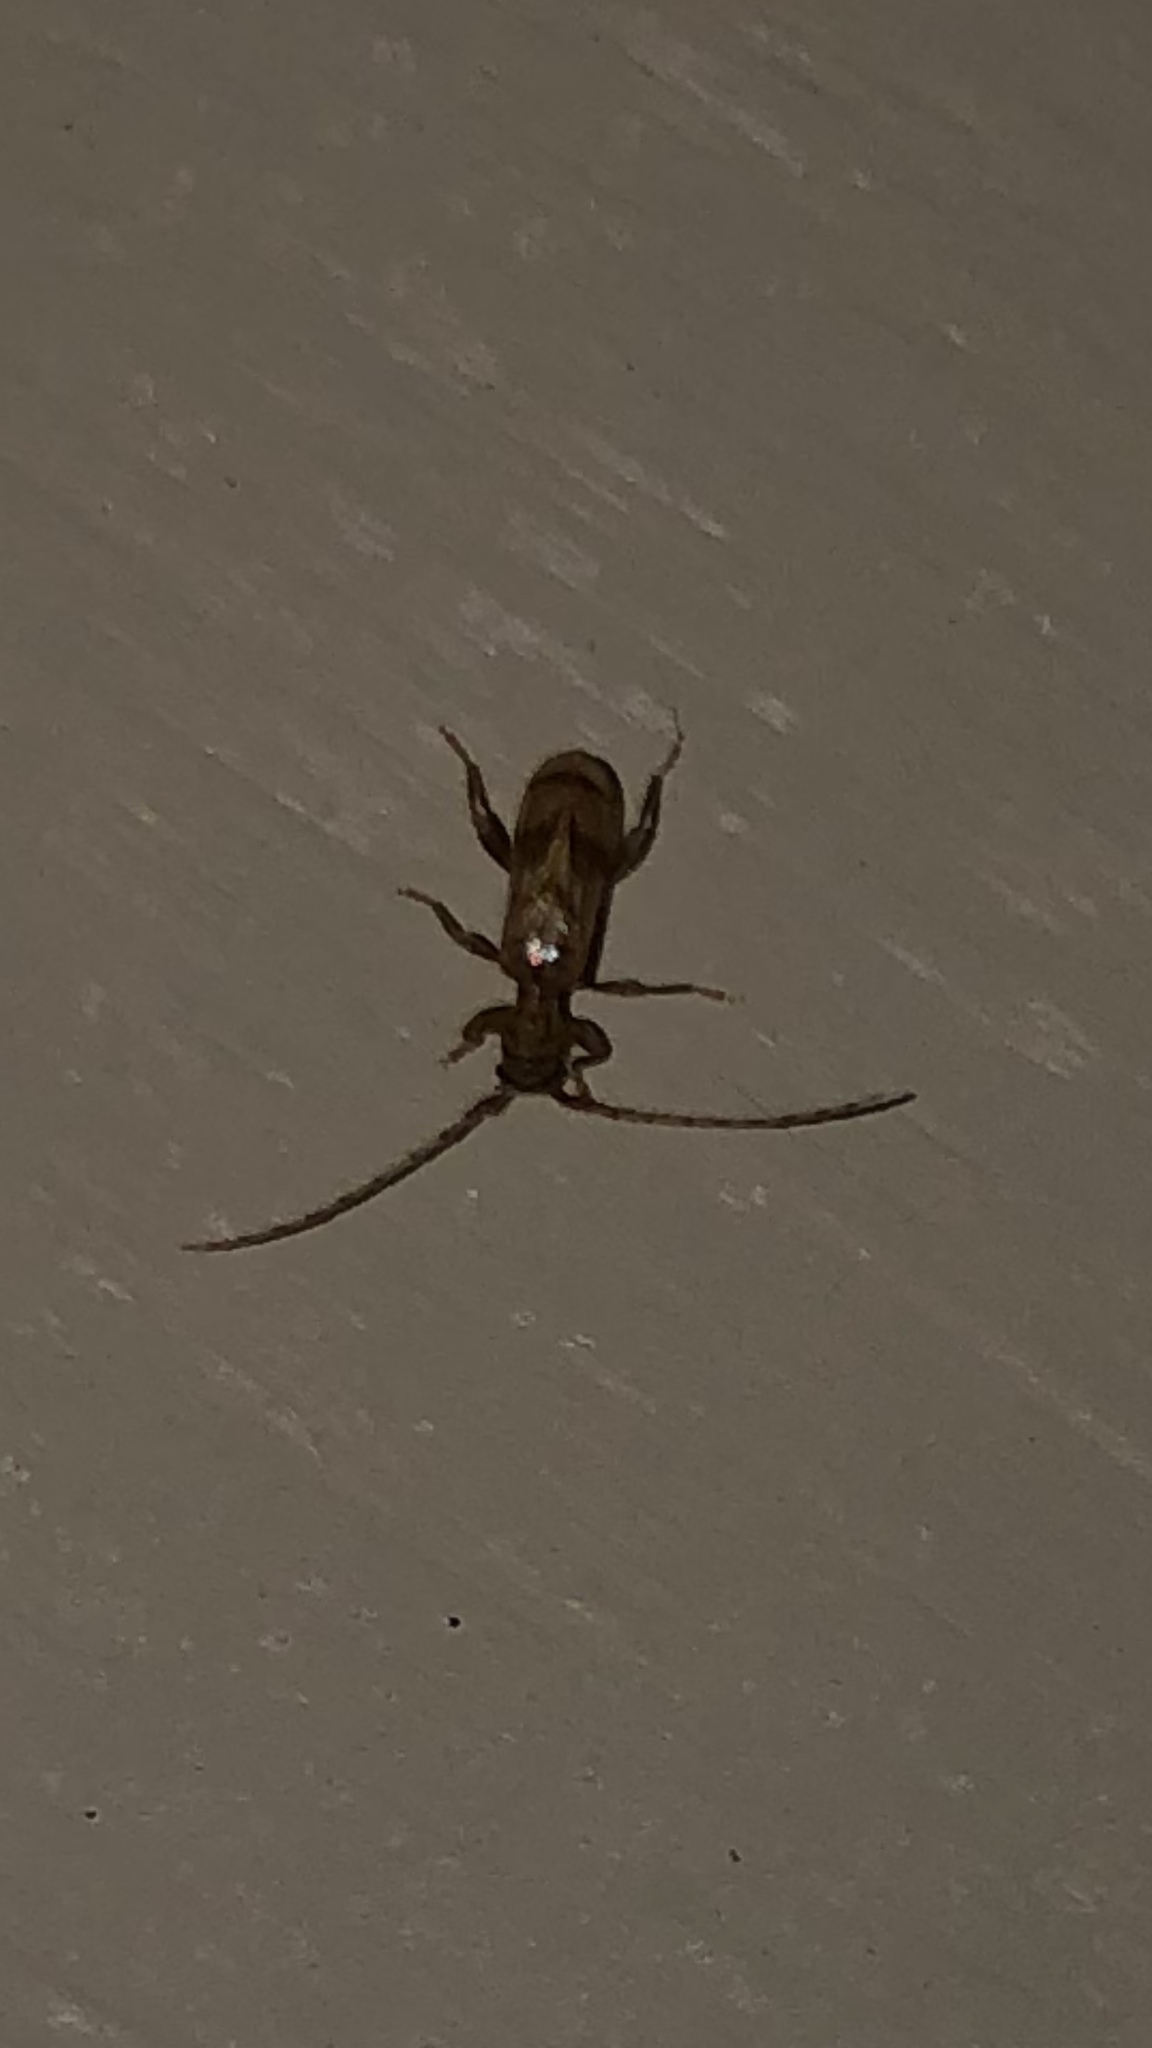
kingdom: Animalia
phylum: Arthropoda
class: Insecta
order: Coleoptera
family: Cerambycidae
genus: Obrium
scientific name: Obrium maculatum
